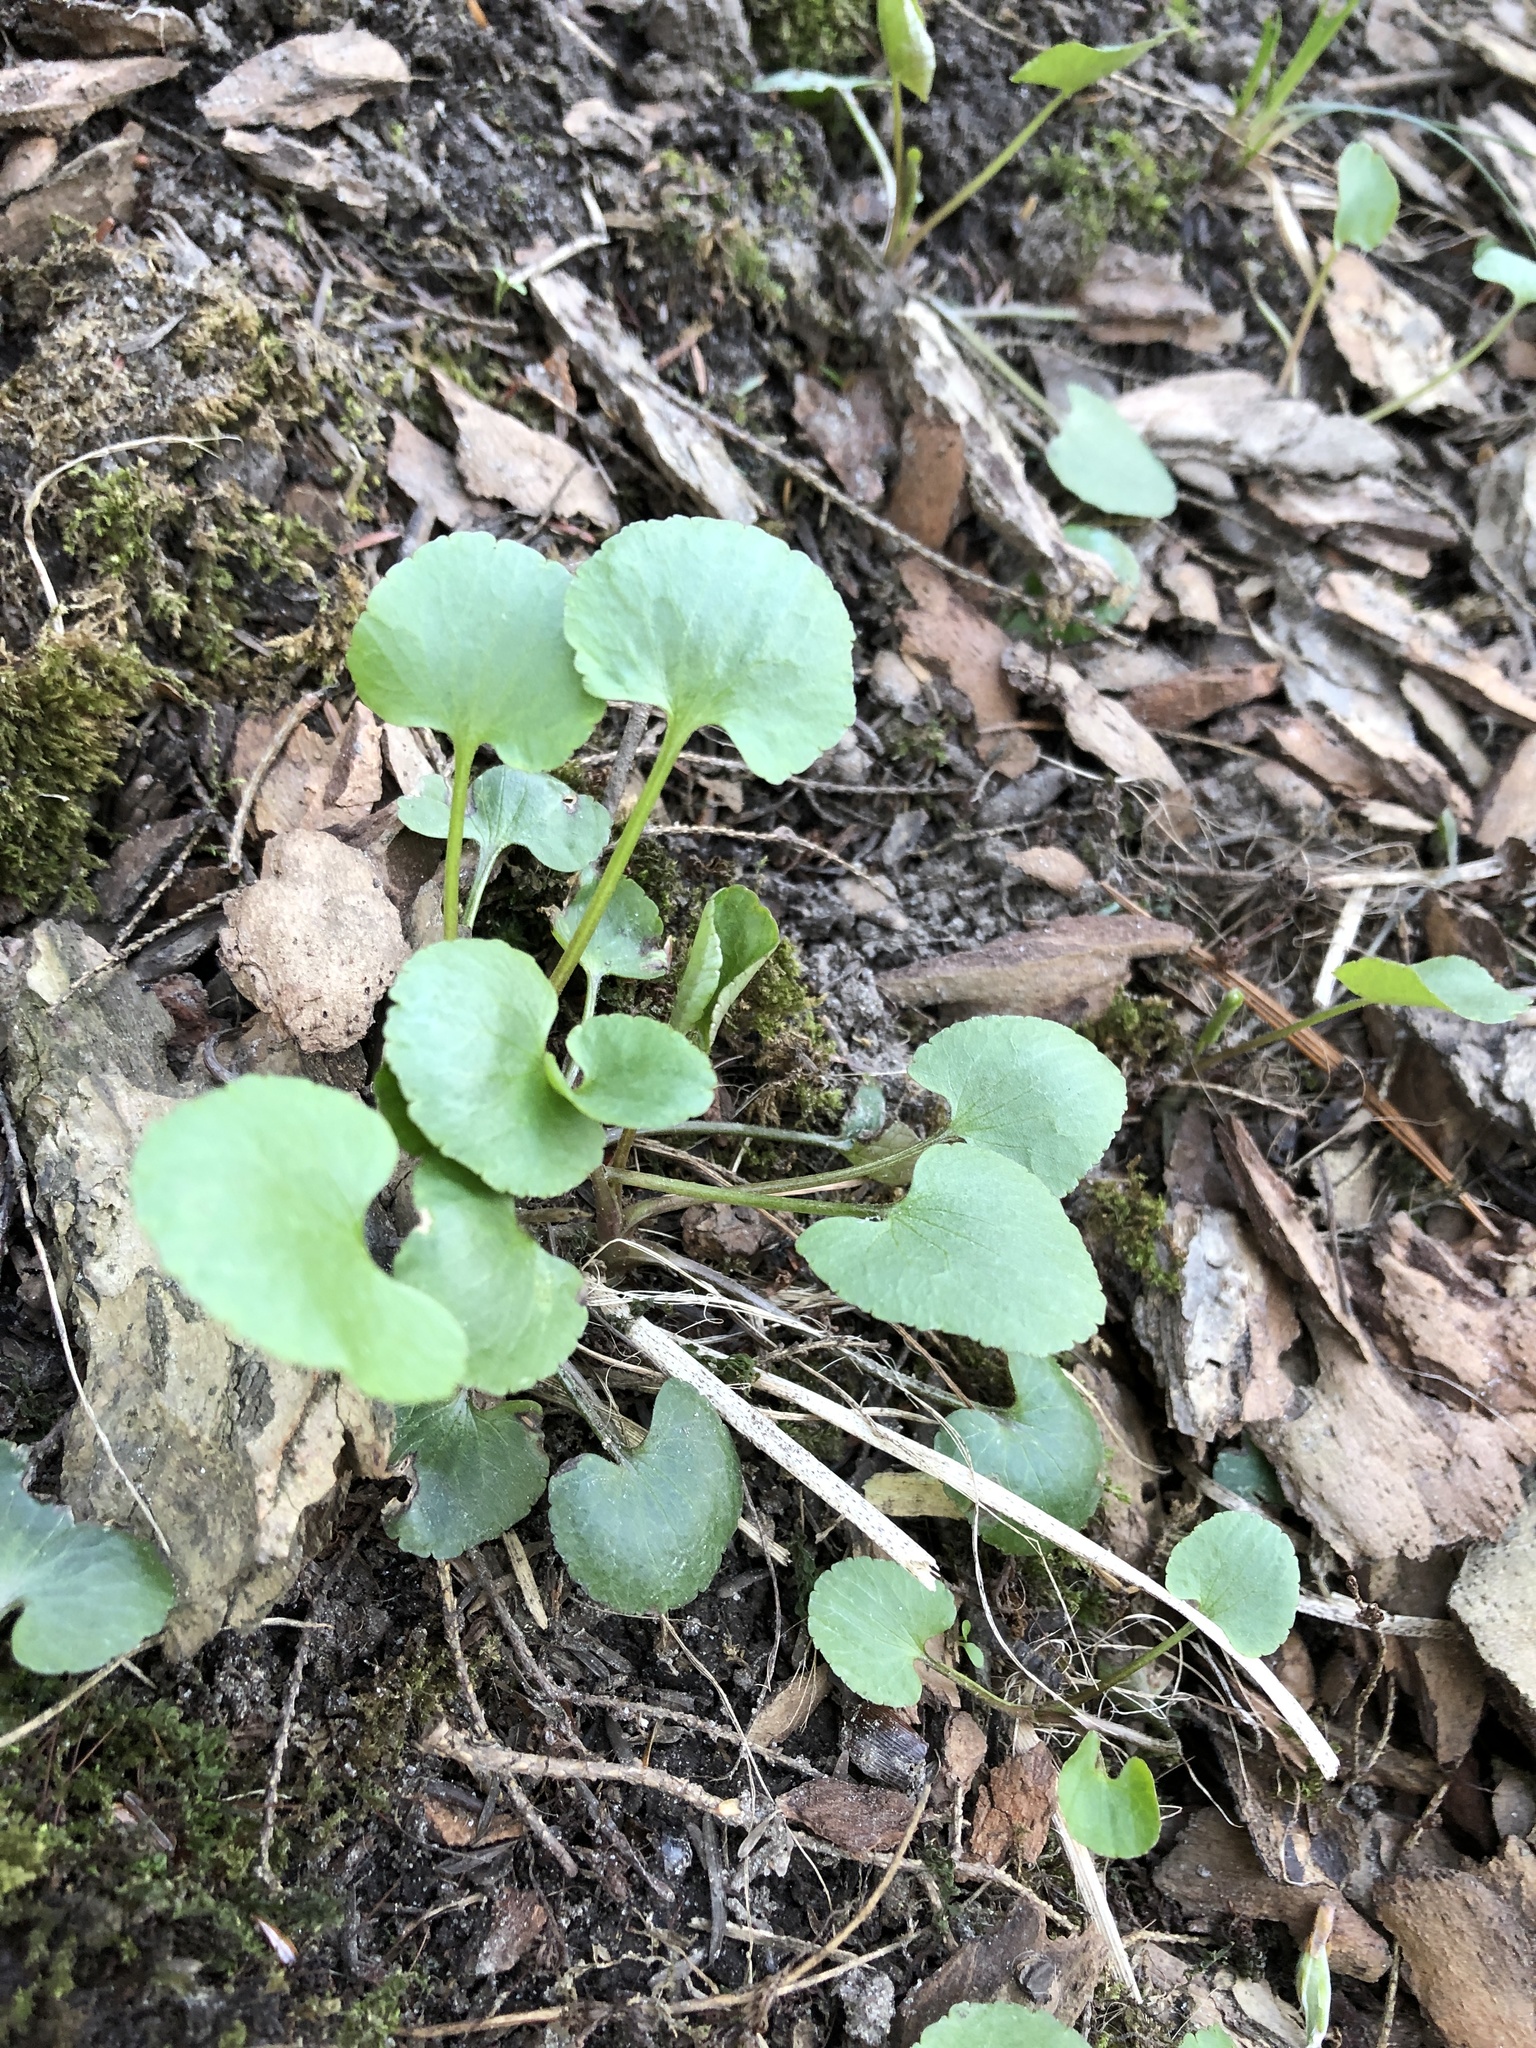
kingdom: Plantae
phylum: Tracheophyta
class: Magnoliopsida
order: Ranunculales
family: Ranunculaceae
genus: Ranunculus
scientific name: Ranunculus abortivus
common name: Early wood buttercup
